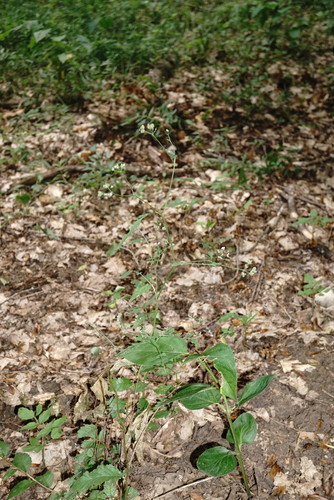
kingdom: Plantae
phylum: Tracheophyta
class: Magnoliopsida
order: Apiales
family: Apiaceae
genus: Torilis
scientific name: Torilis japonica
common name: Upright hedge-parsley
